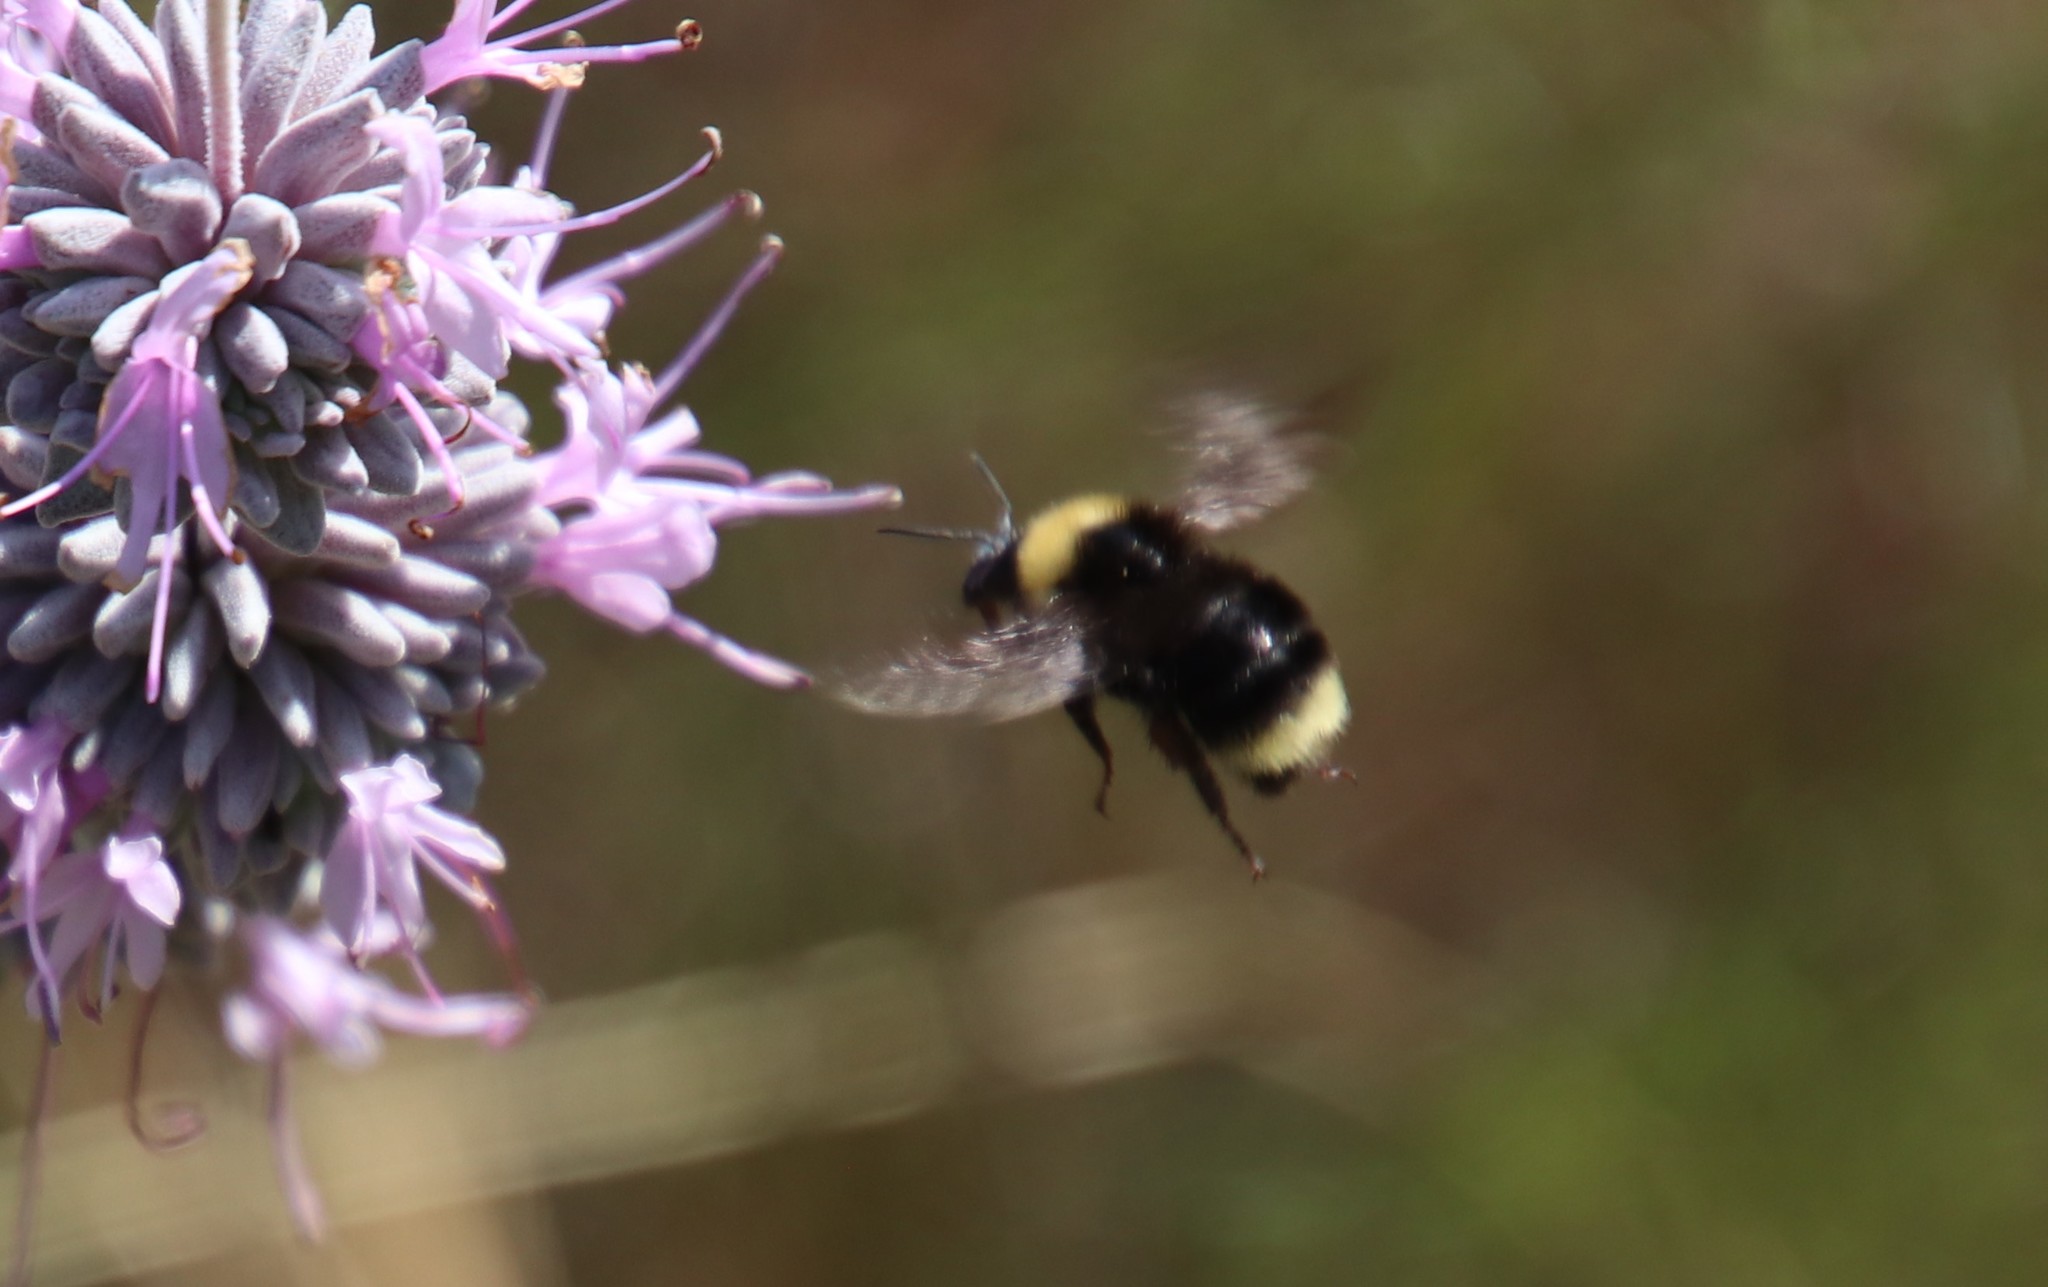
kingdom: Animalia
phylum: Arthropoda
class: Insecta
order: Hymenoptera
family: Apidae
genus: Bombus
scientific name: Bombus californicus
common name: California bumble bee
